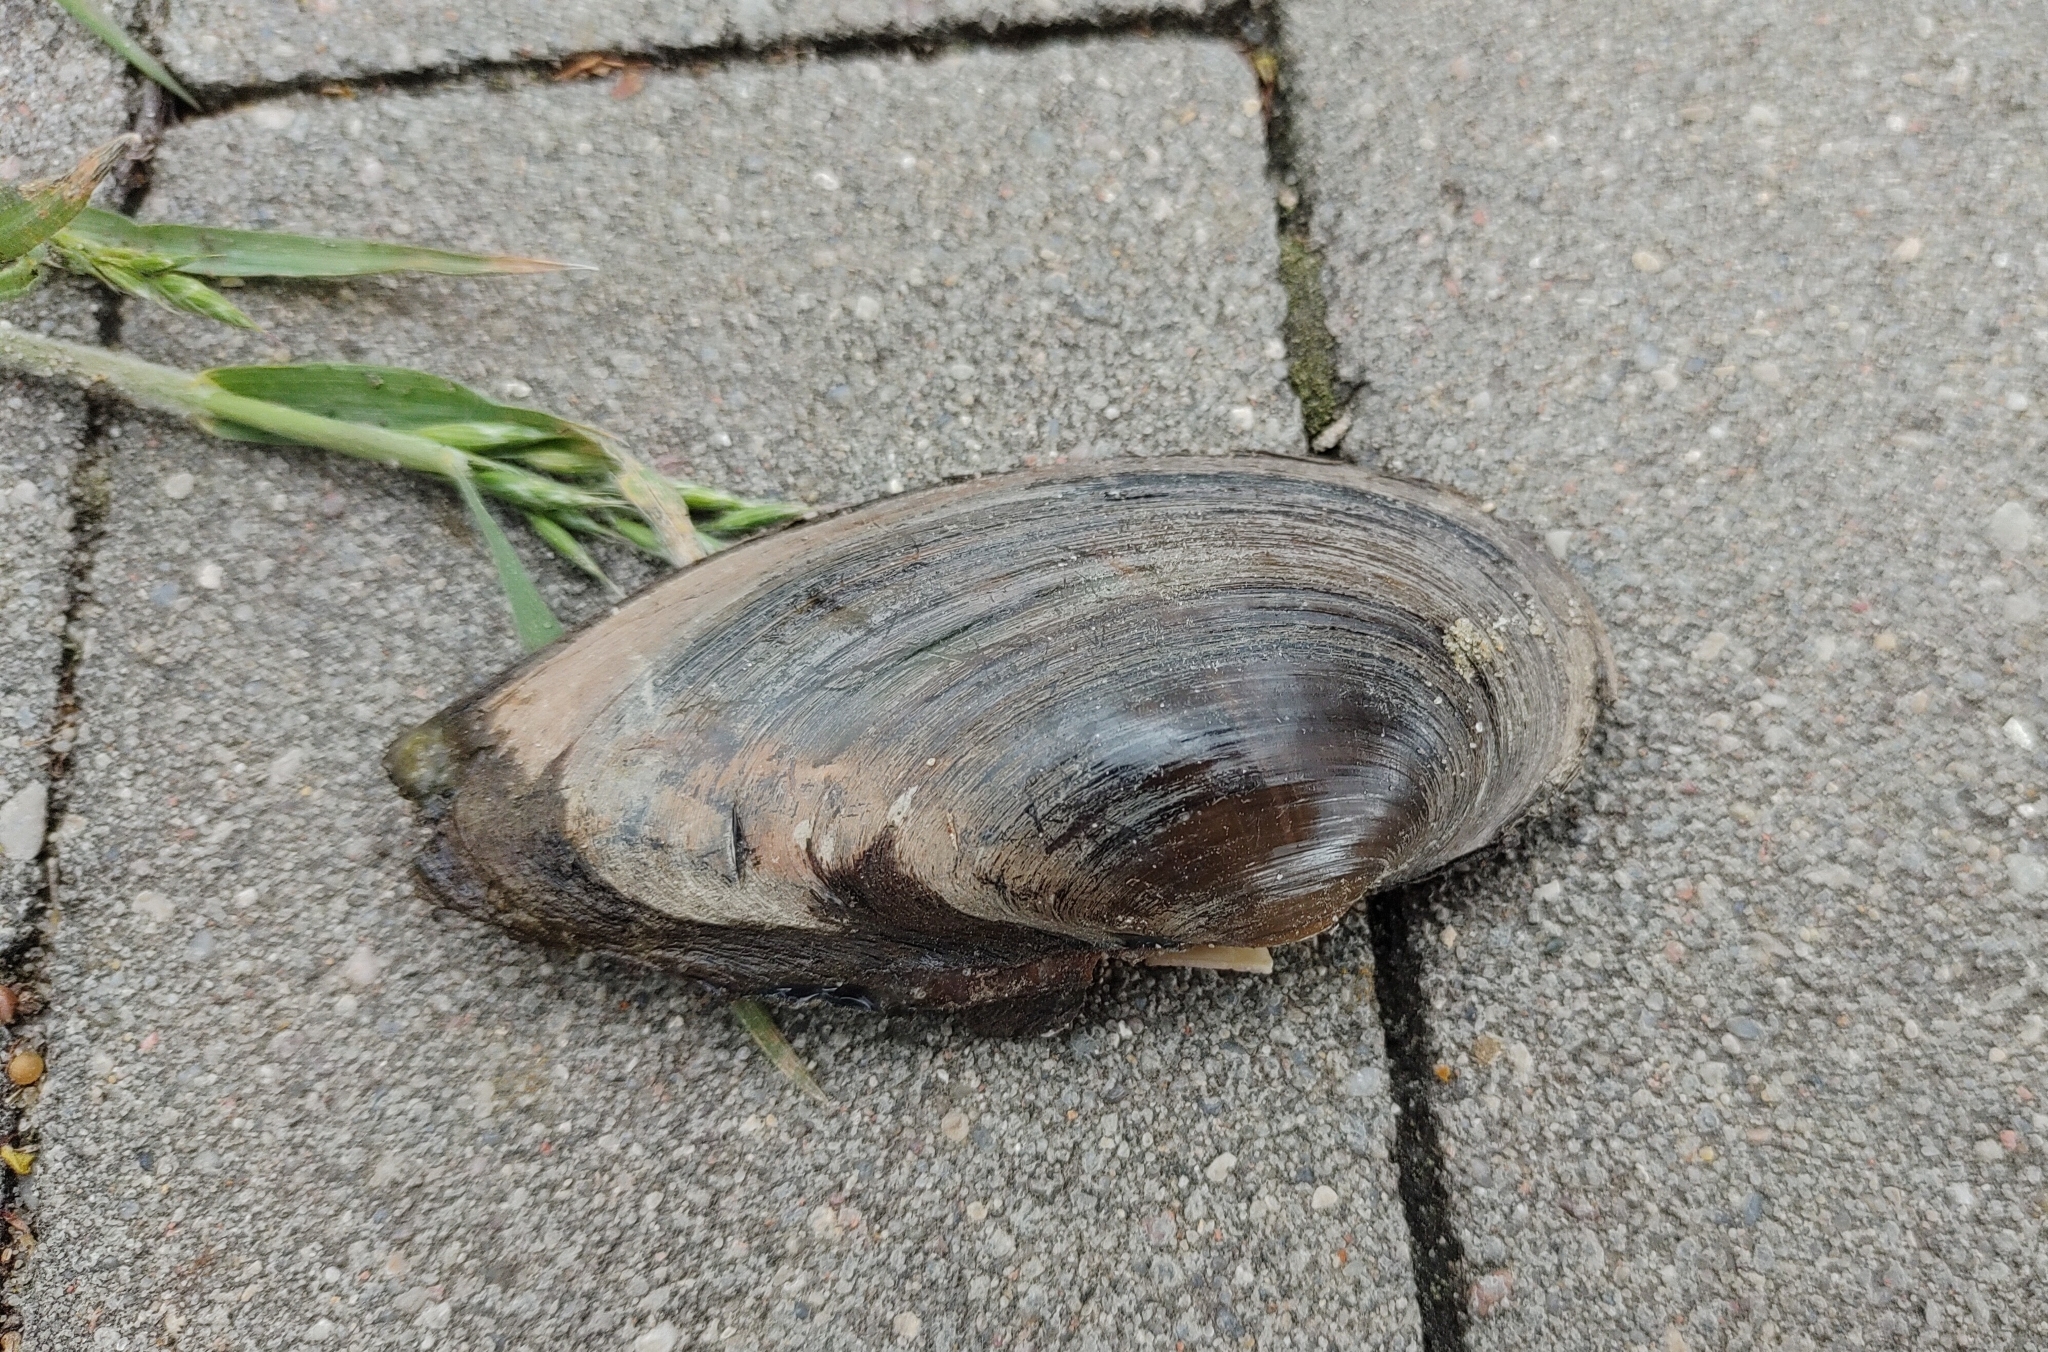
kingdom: Animalia
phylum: Mollusca
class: Bivalvia
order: Unionida
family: Unionidae
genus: Unio
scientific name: Unio tumidus
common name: Swollen river mussel
